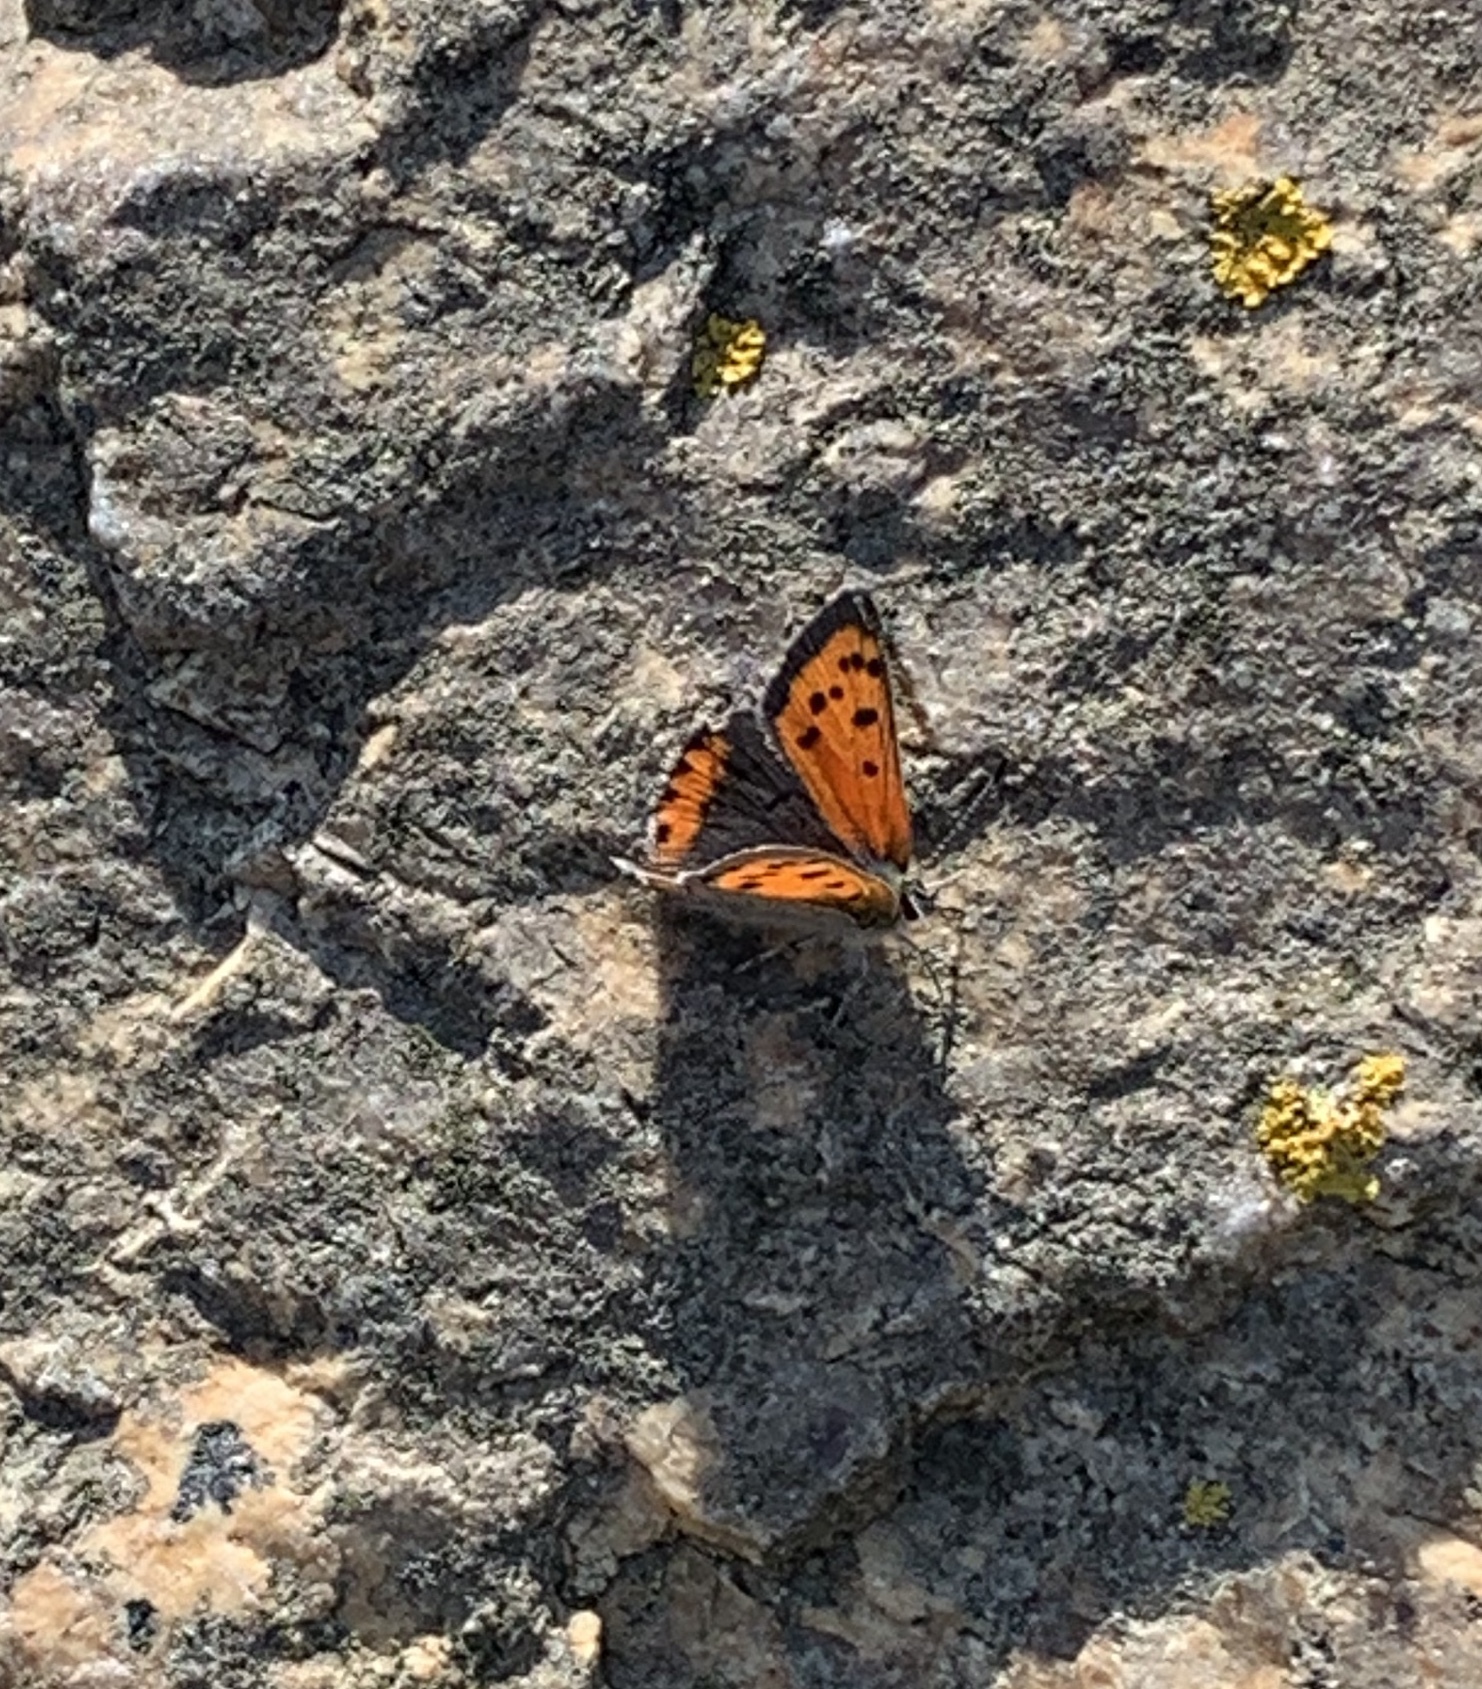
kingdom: Animalia
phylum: Arthropoda
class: Insecta
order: Lepidoptera
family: Lycaenidae
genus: Lycaena
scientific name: Lycaena hypophlaeas
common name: American copper
